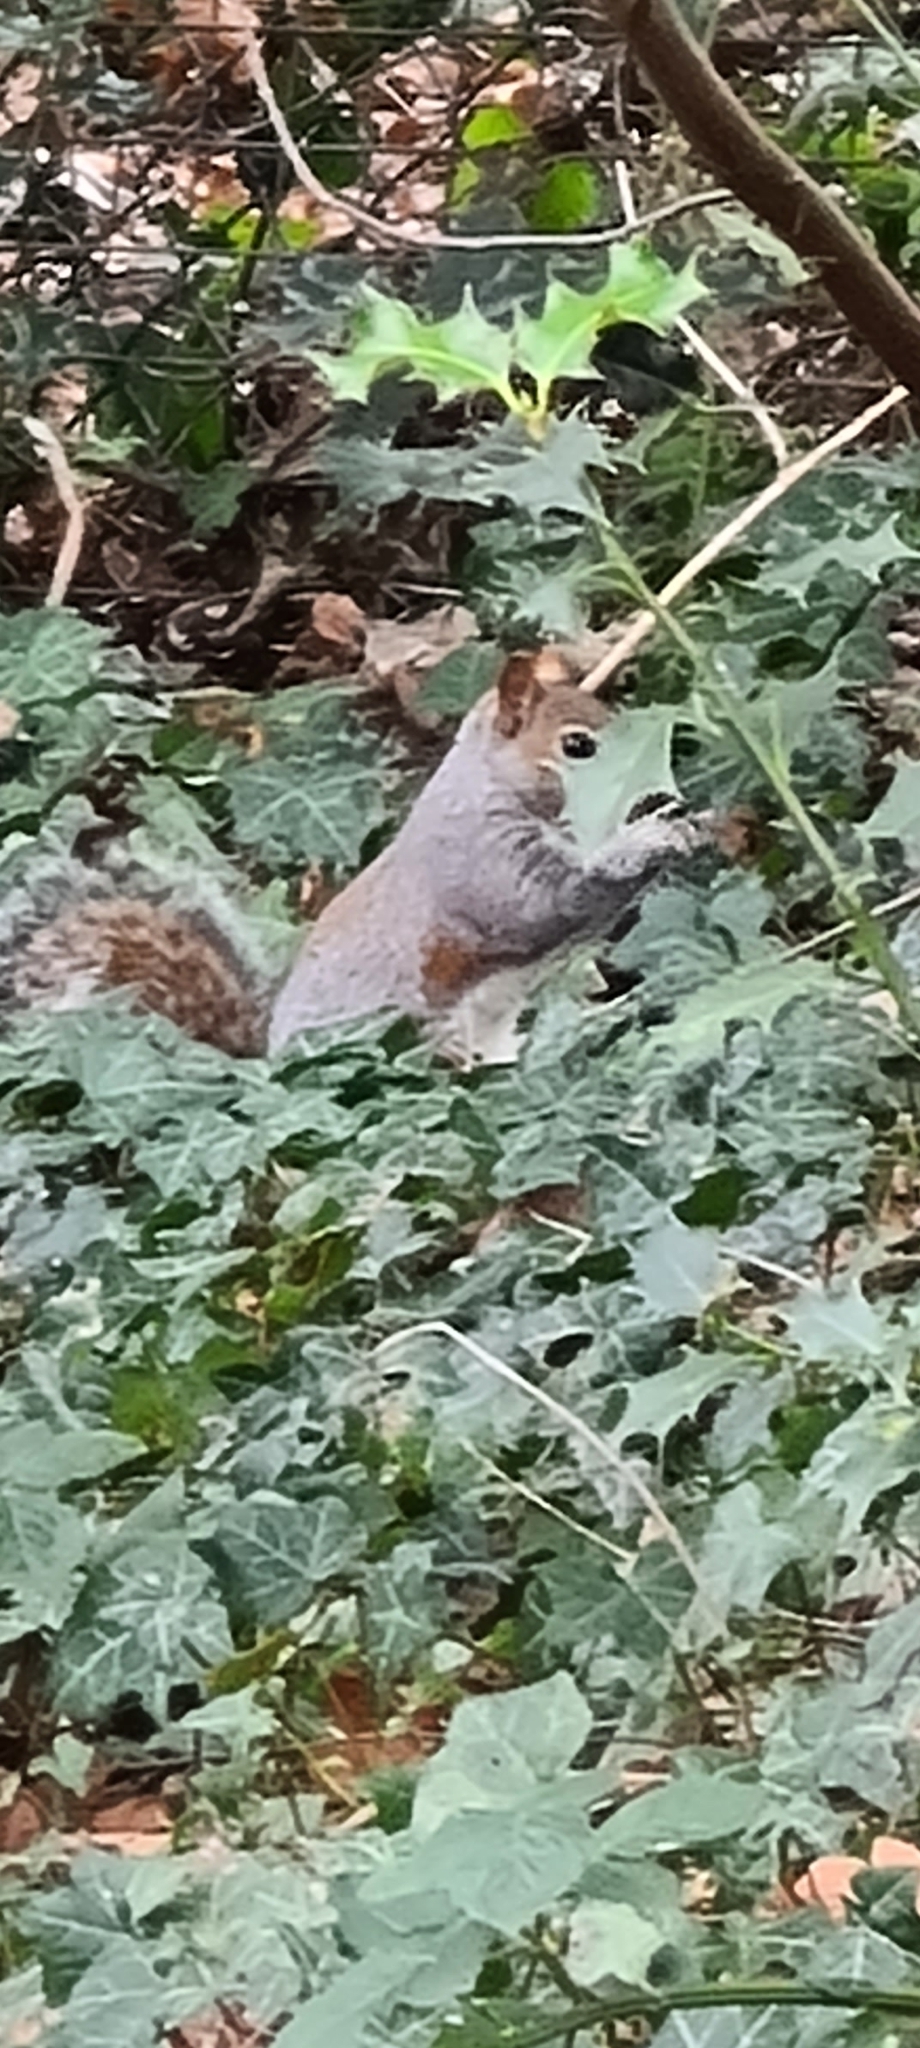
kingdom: Animalia
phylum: Chordata
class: Mammalia
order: Rodentia
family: Sciuridae
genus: Sciurus
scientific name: Sciurus carolinensis
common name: Eastern gray squirrel
